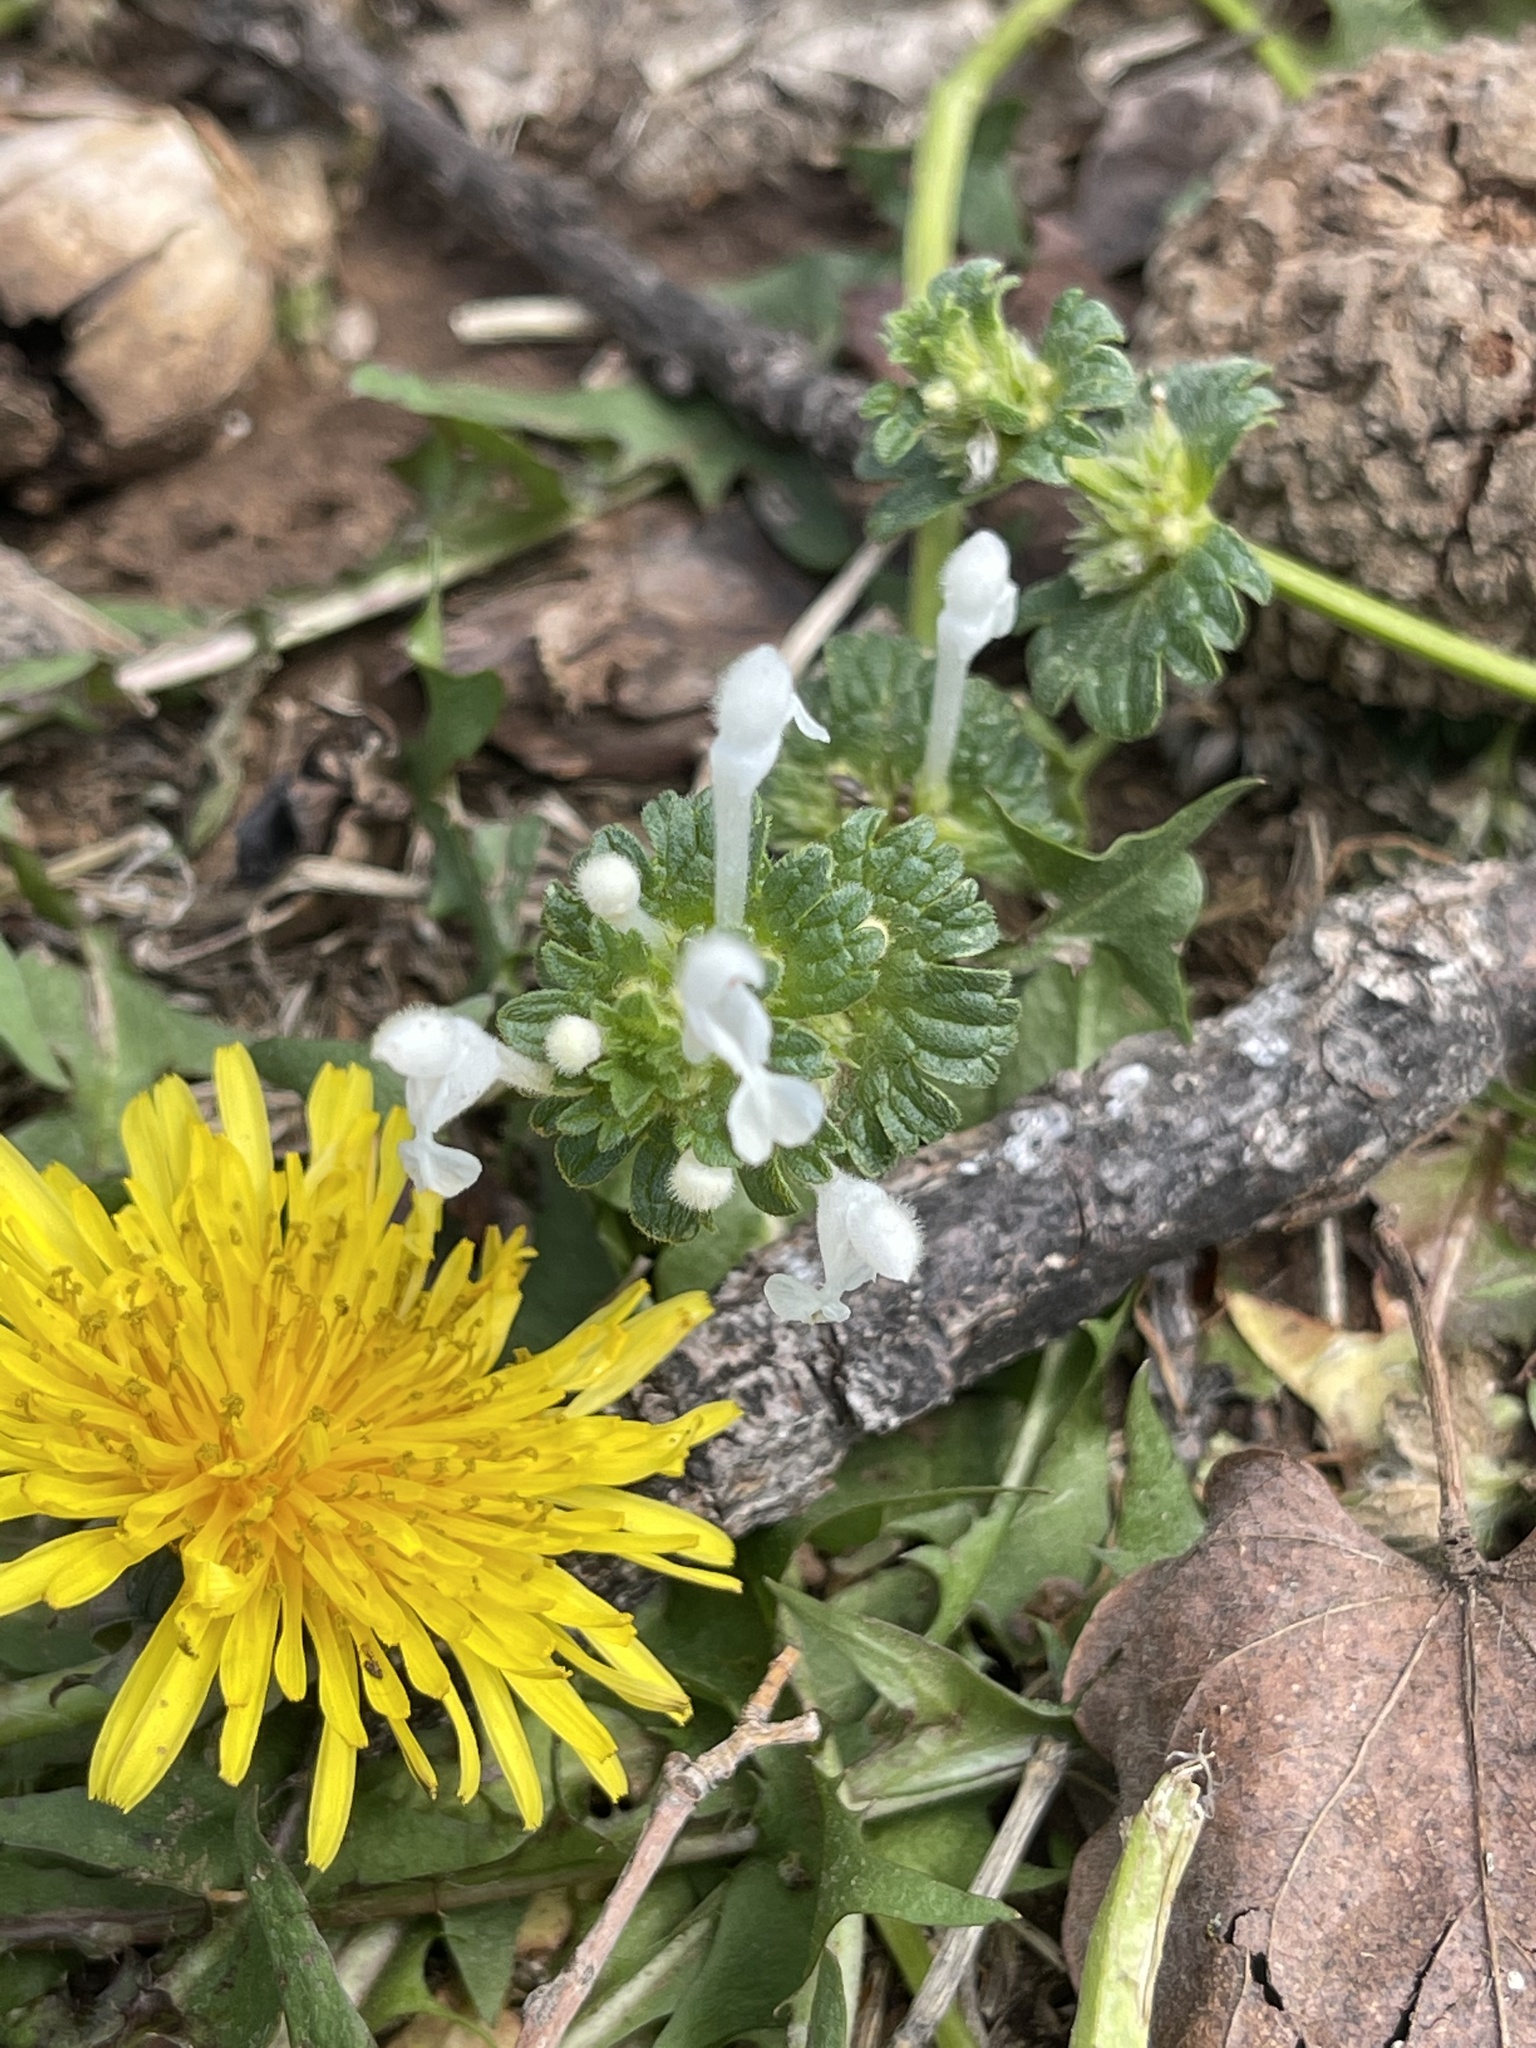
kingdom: Plantae
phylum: Tracheophyta
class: Magnoliopsida
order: Lamiales
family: Lamiaceae
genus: Lamium
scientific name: Lamium amplexicaule
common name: Henbit dead-nettle
